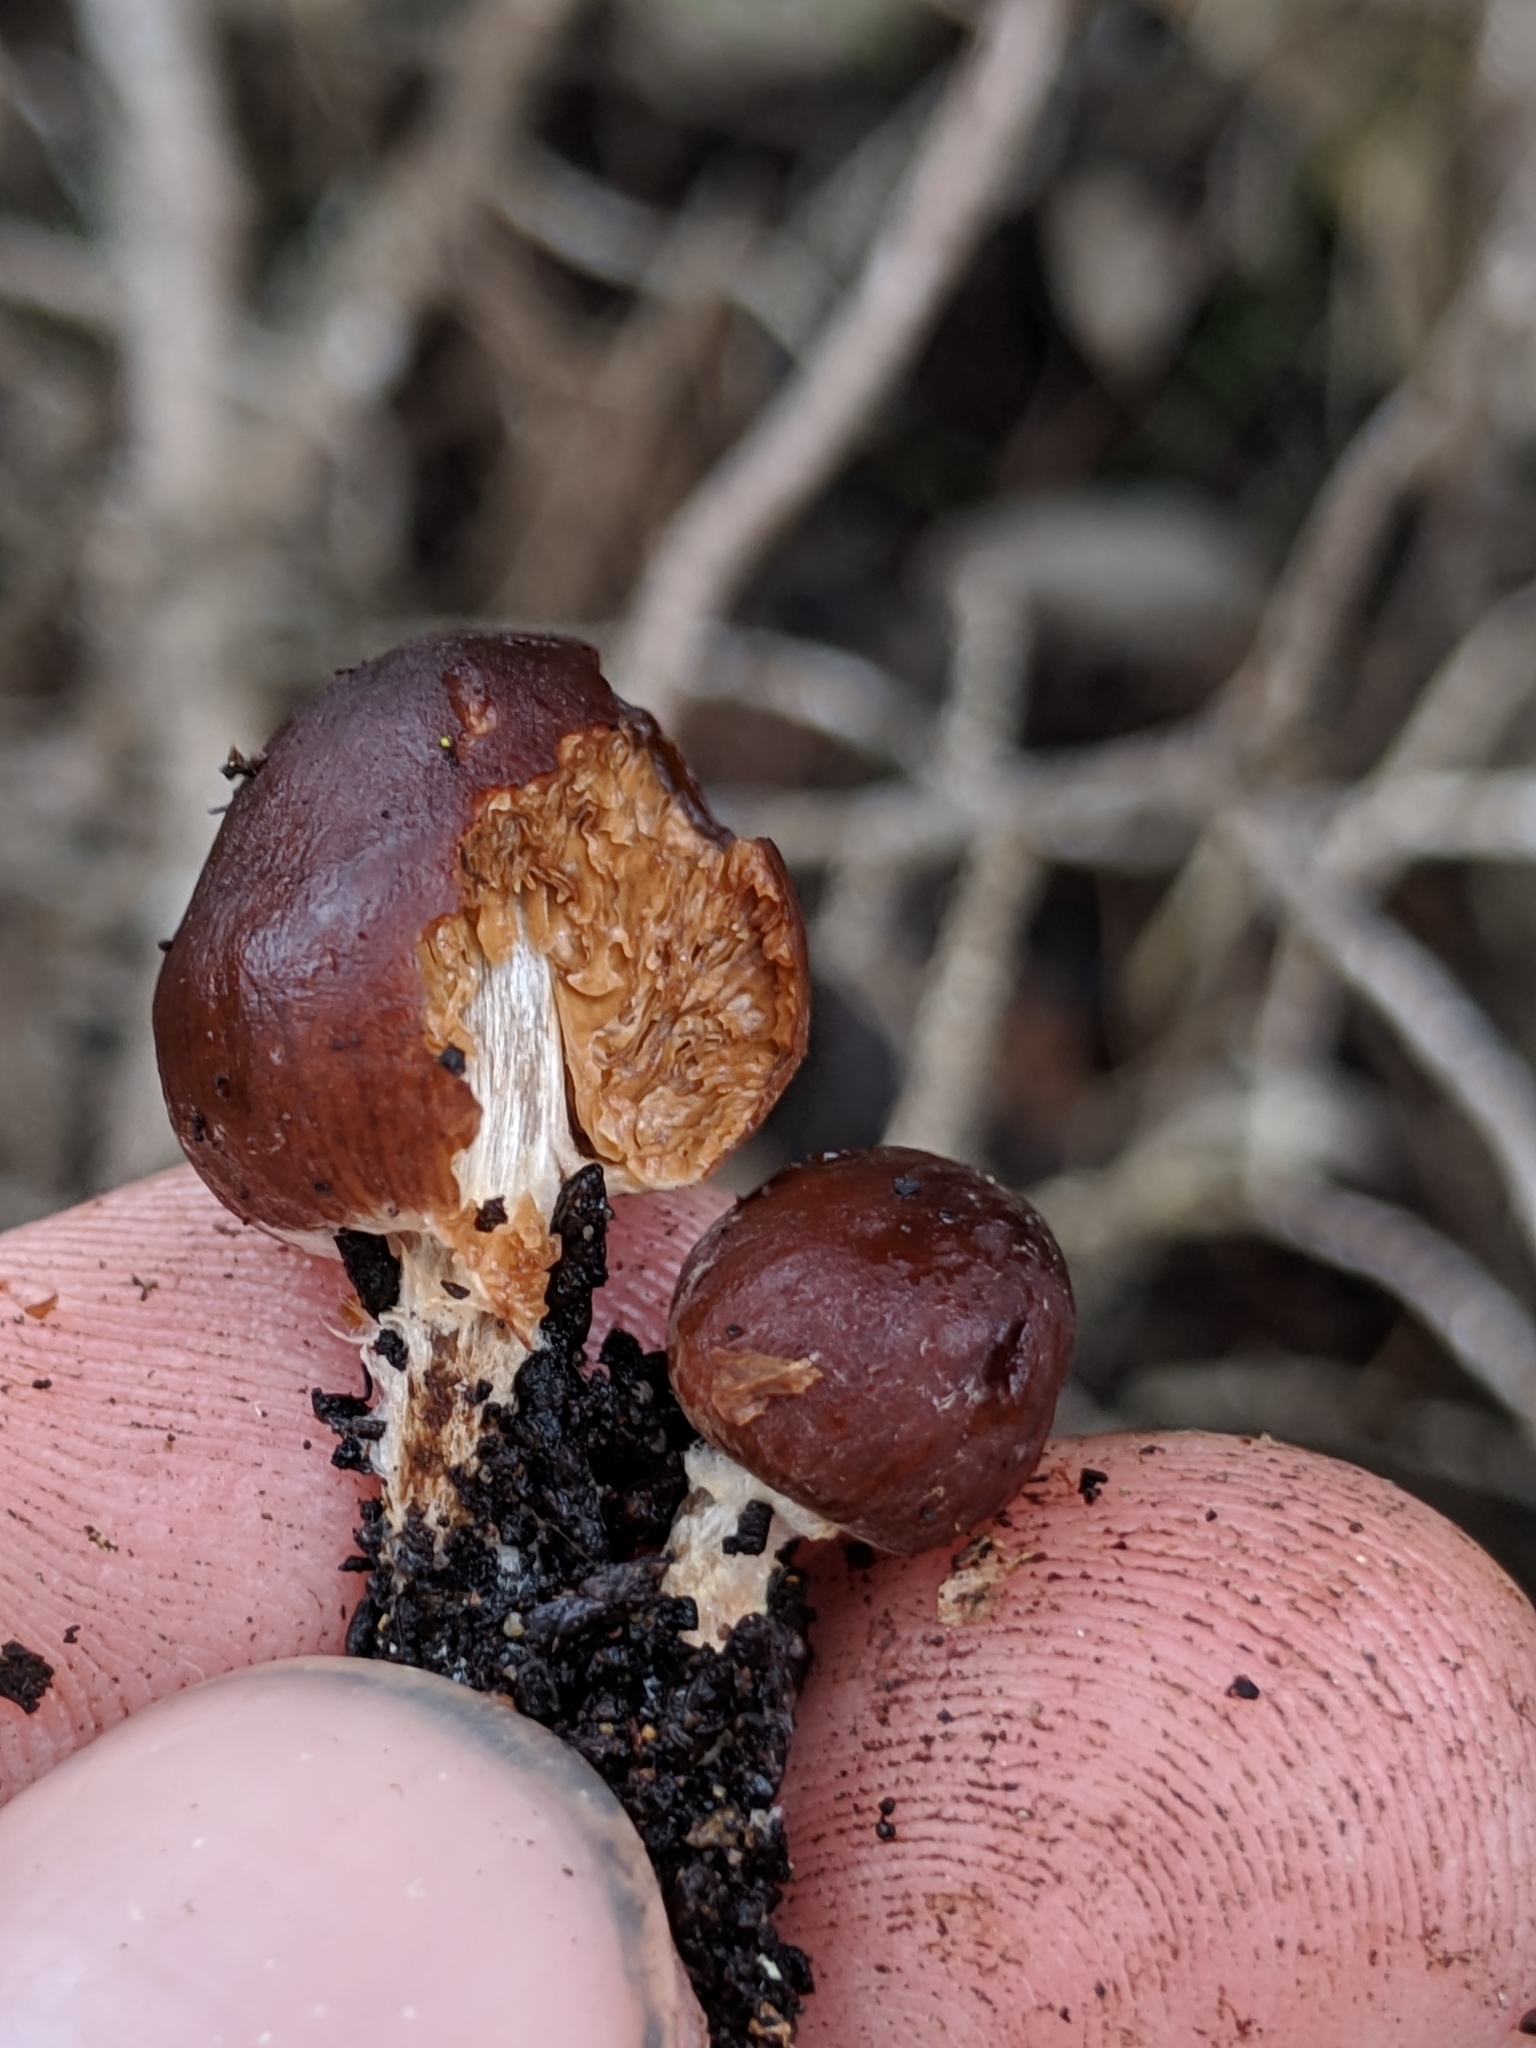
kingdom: Fungi
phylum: Basidiomycota
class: Agaricomycetes
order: Agaricales
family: Bolbitiaceae
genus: Setchelliogaster
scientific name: Setchelliogaster tenuipes
